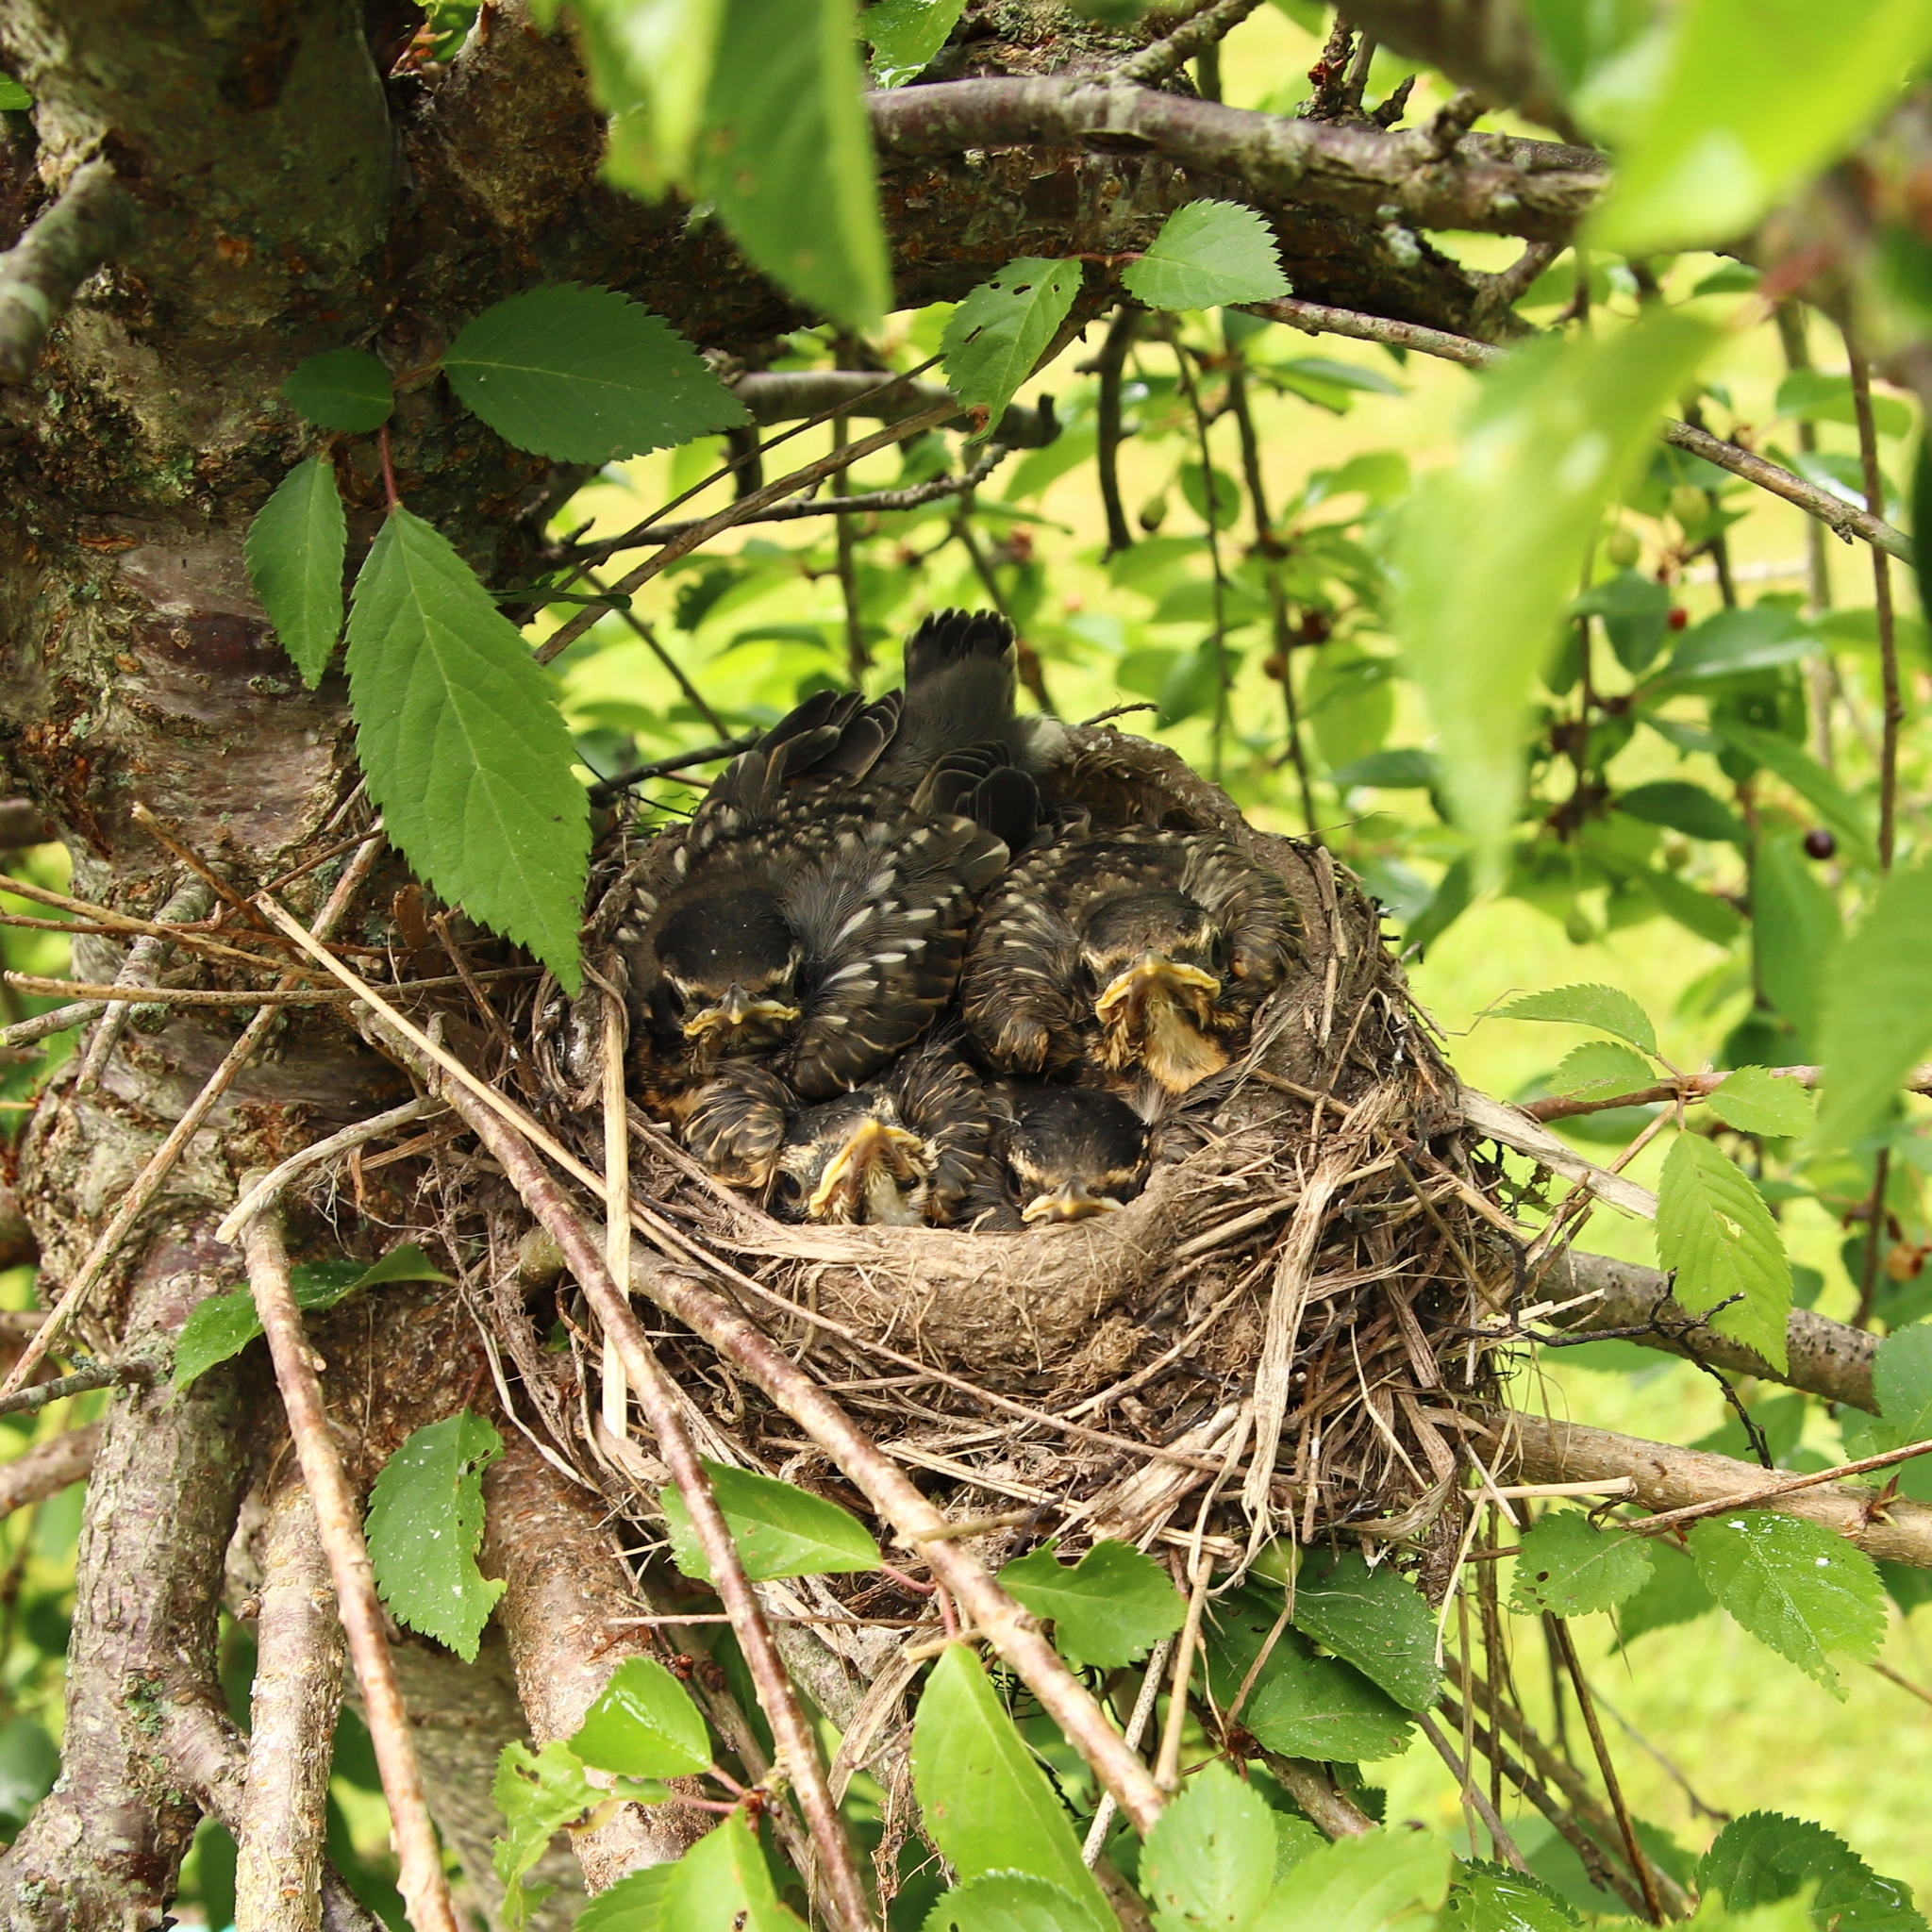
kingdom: Animalia
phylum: Chordata
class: Aves
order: Passeriformes
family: Turdidae
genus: Turdus
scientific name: Turdus migratorius
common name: American robin
